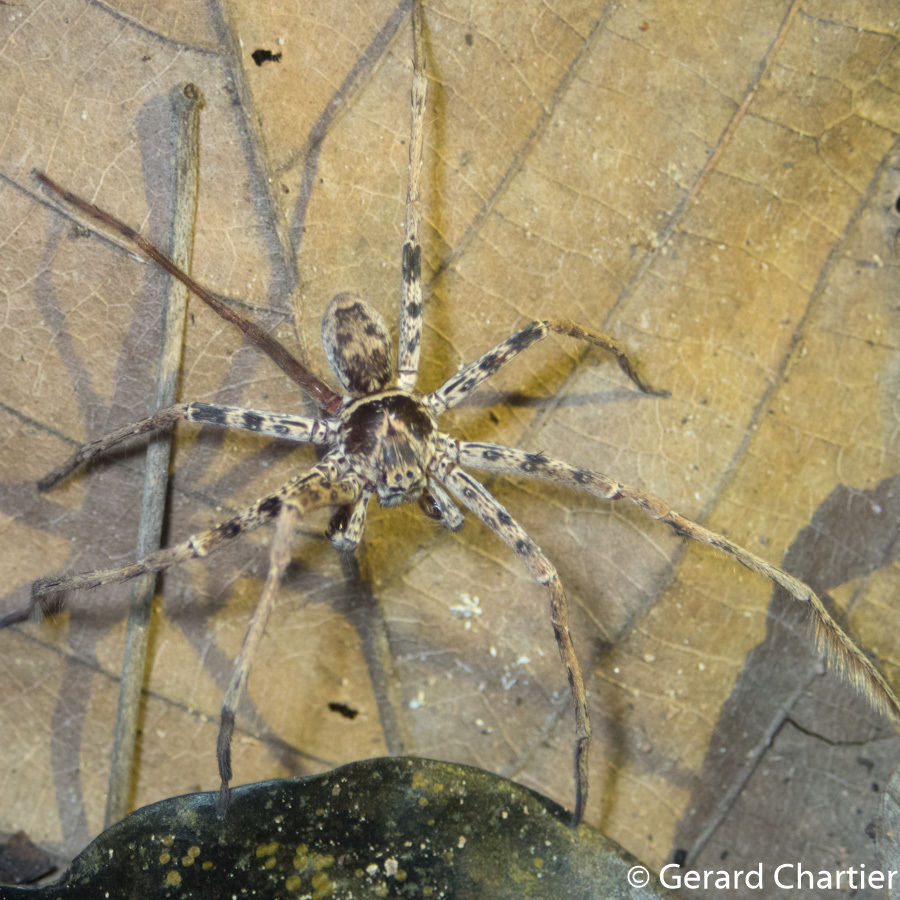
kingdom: Animalia
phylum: Arthropoda
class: Arachnida
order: Araneae
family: Sparassidae
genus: Heteropoda
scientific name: Heteropoda venatoria
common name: Huntsman spider
